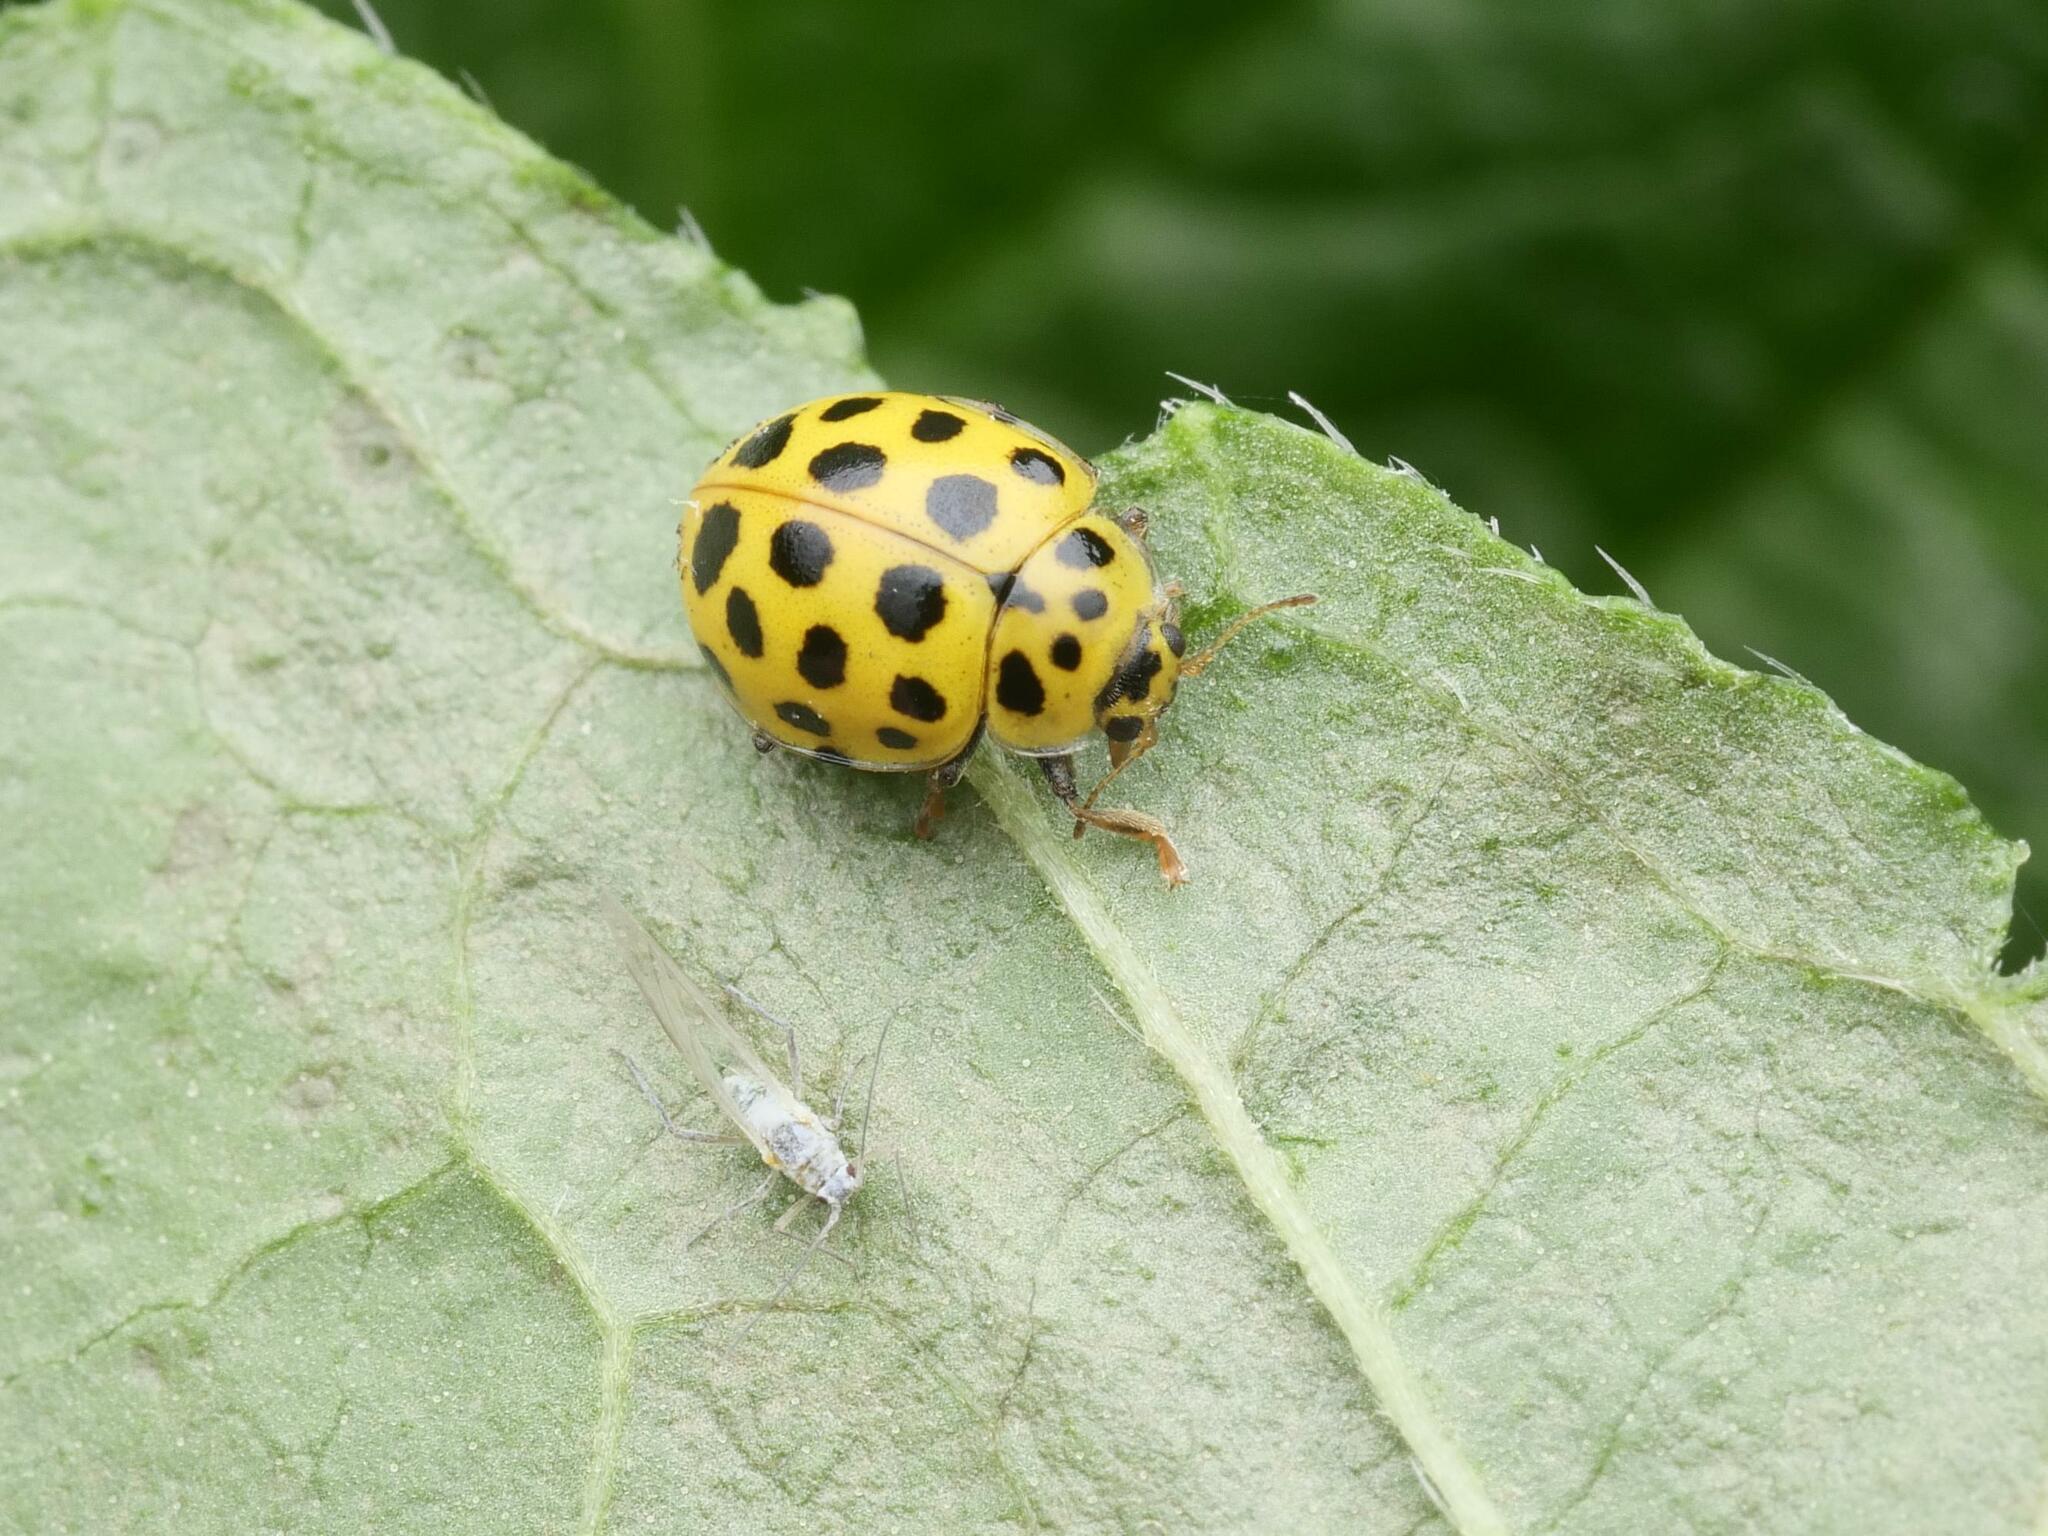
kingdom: Animalia
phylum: Arthropoda
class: Insecta
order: Coleoptera
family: Coccinellidae
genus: Psyllobora
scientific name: Psyllobora vigintiduopunctata
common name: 22-spot ladybird
